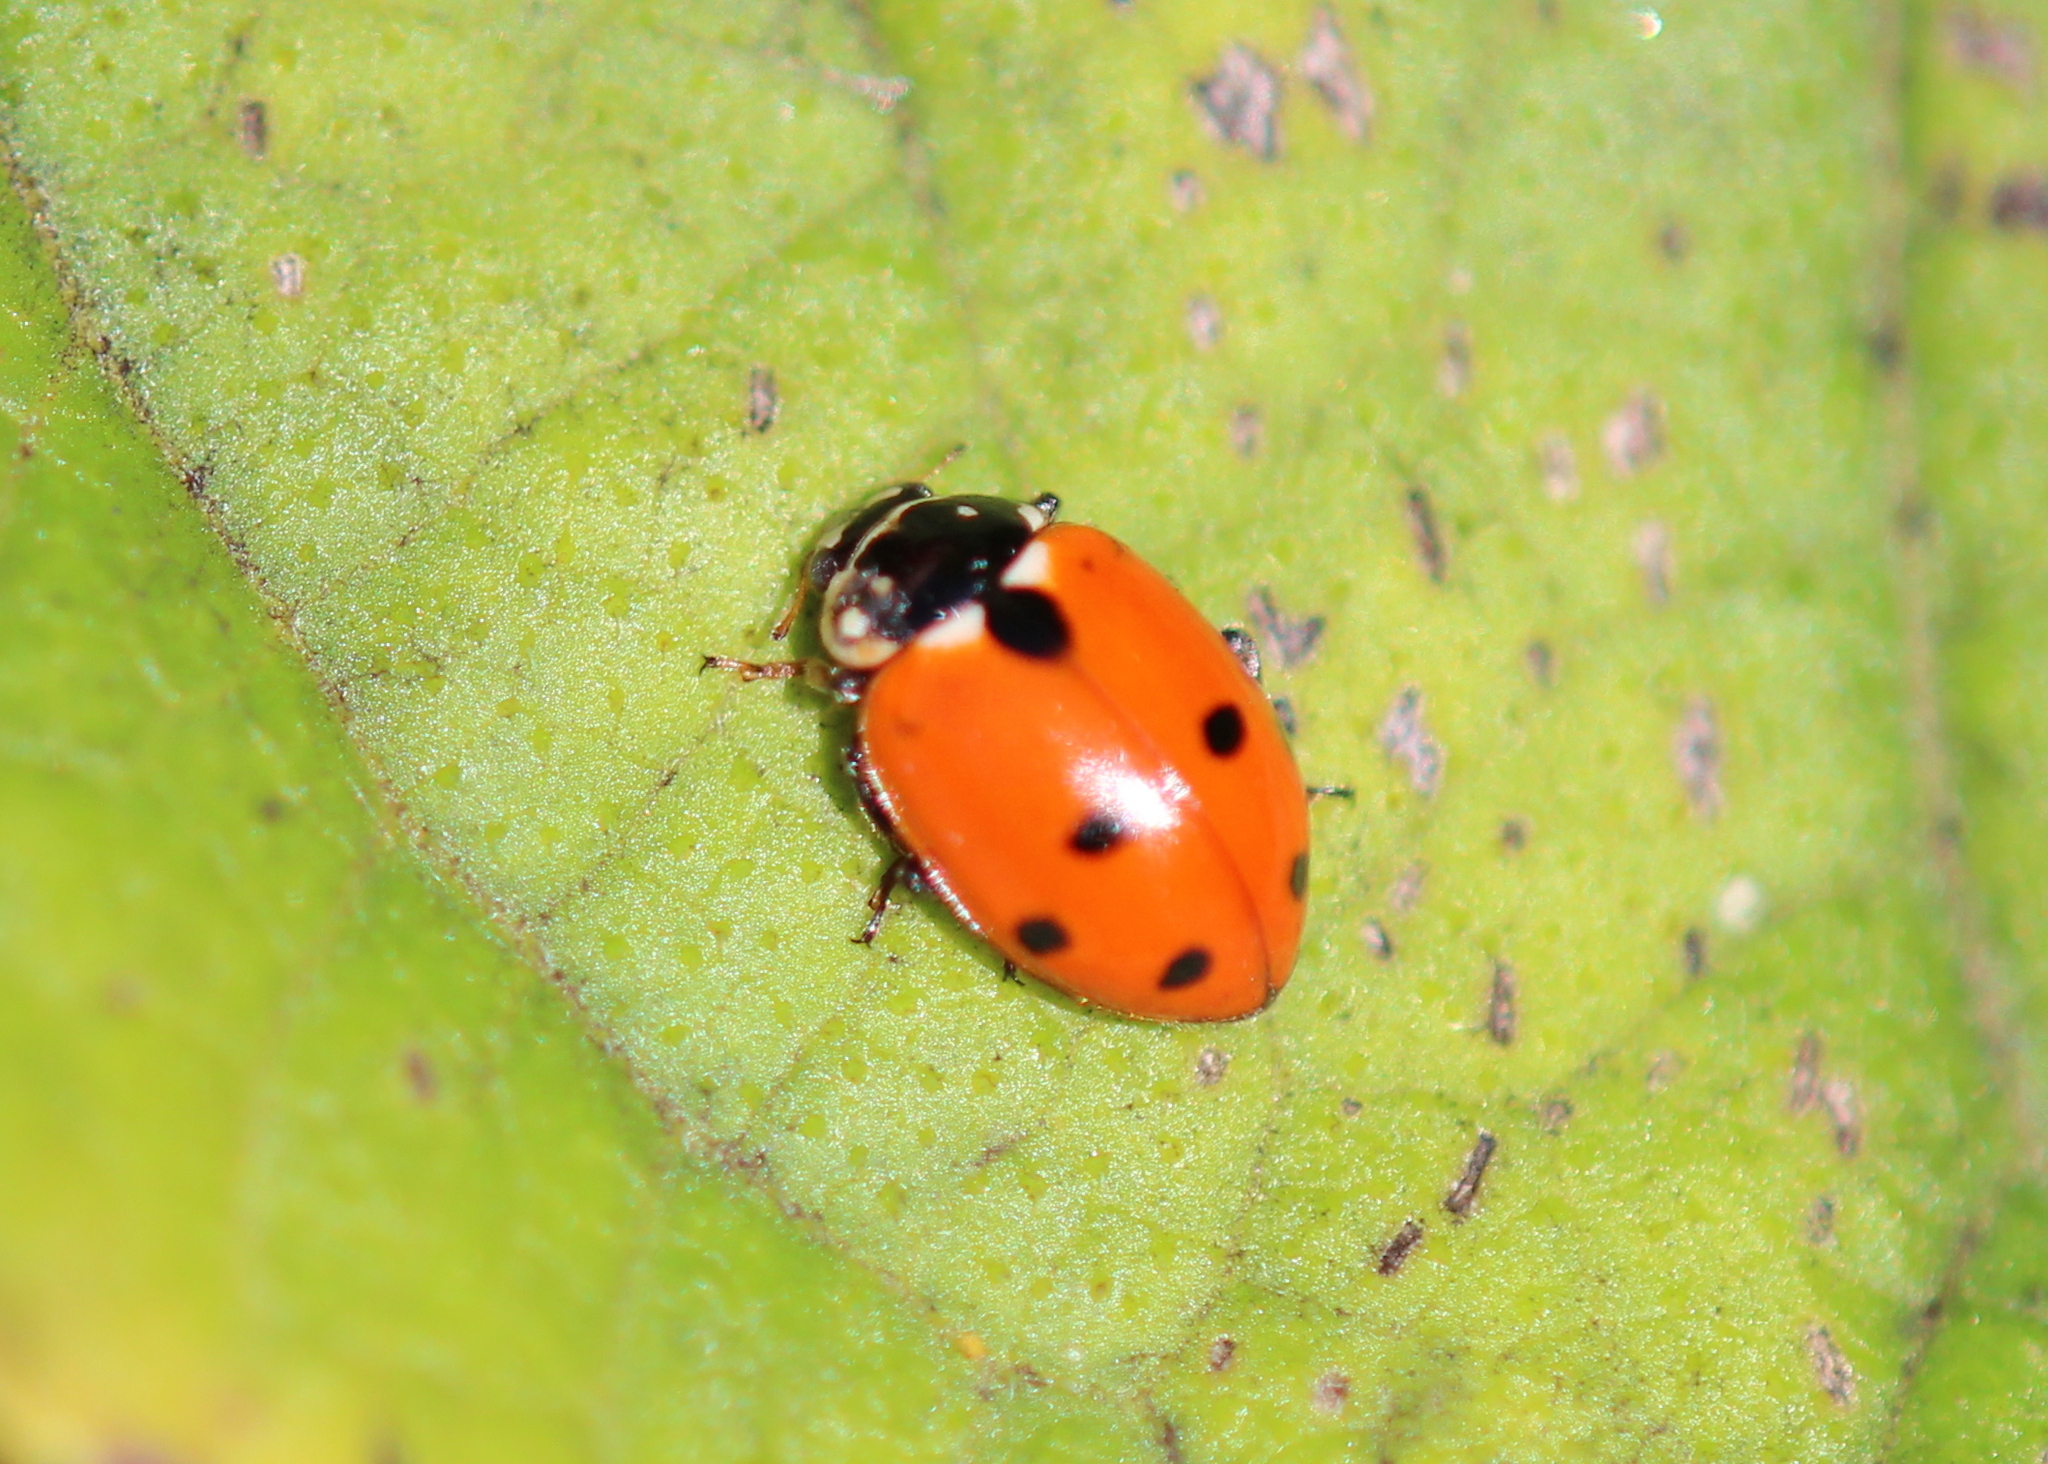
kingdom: Animalia
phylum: Arthropoda
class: Insecta
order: Coleoptera
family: Coccinellidae
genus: Hippodamia
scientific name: Hippodamia variegata
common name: Ladybird beetle
